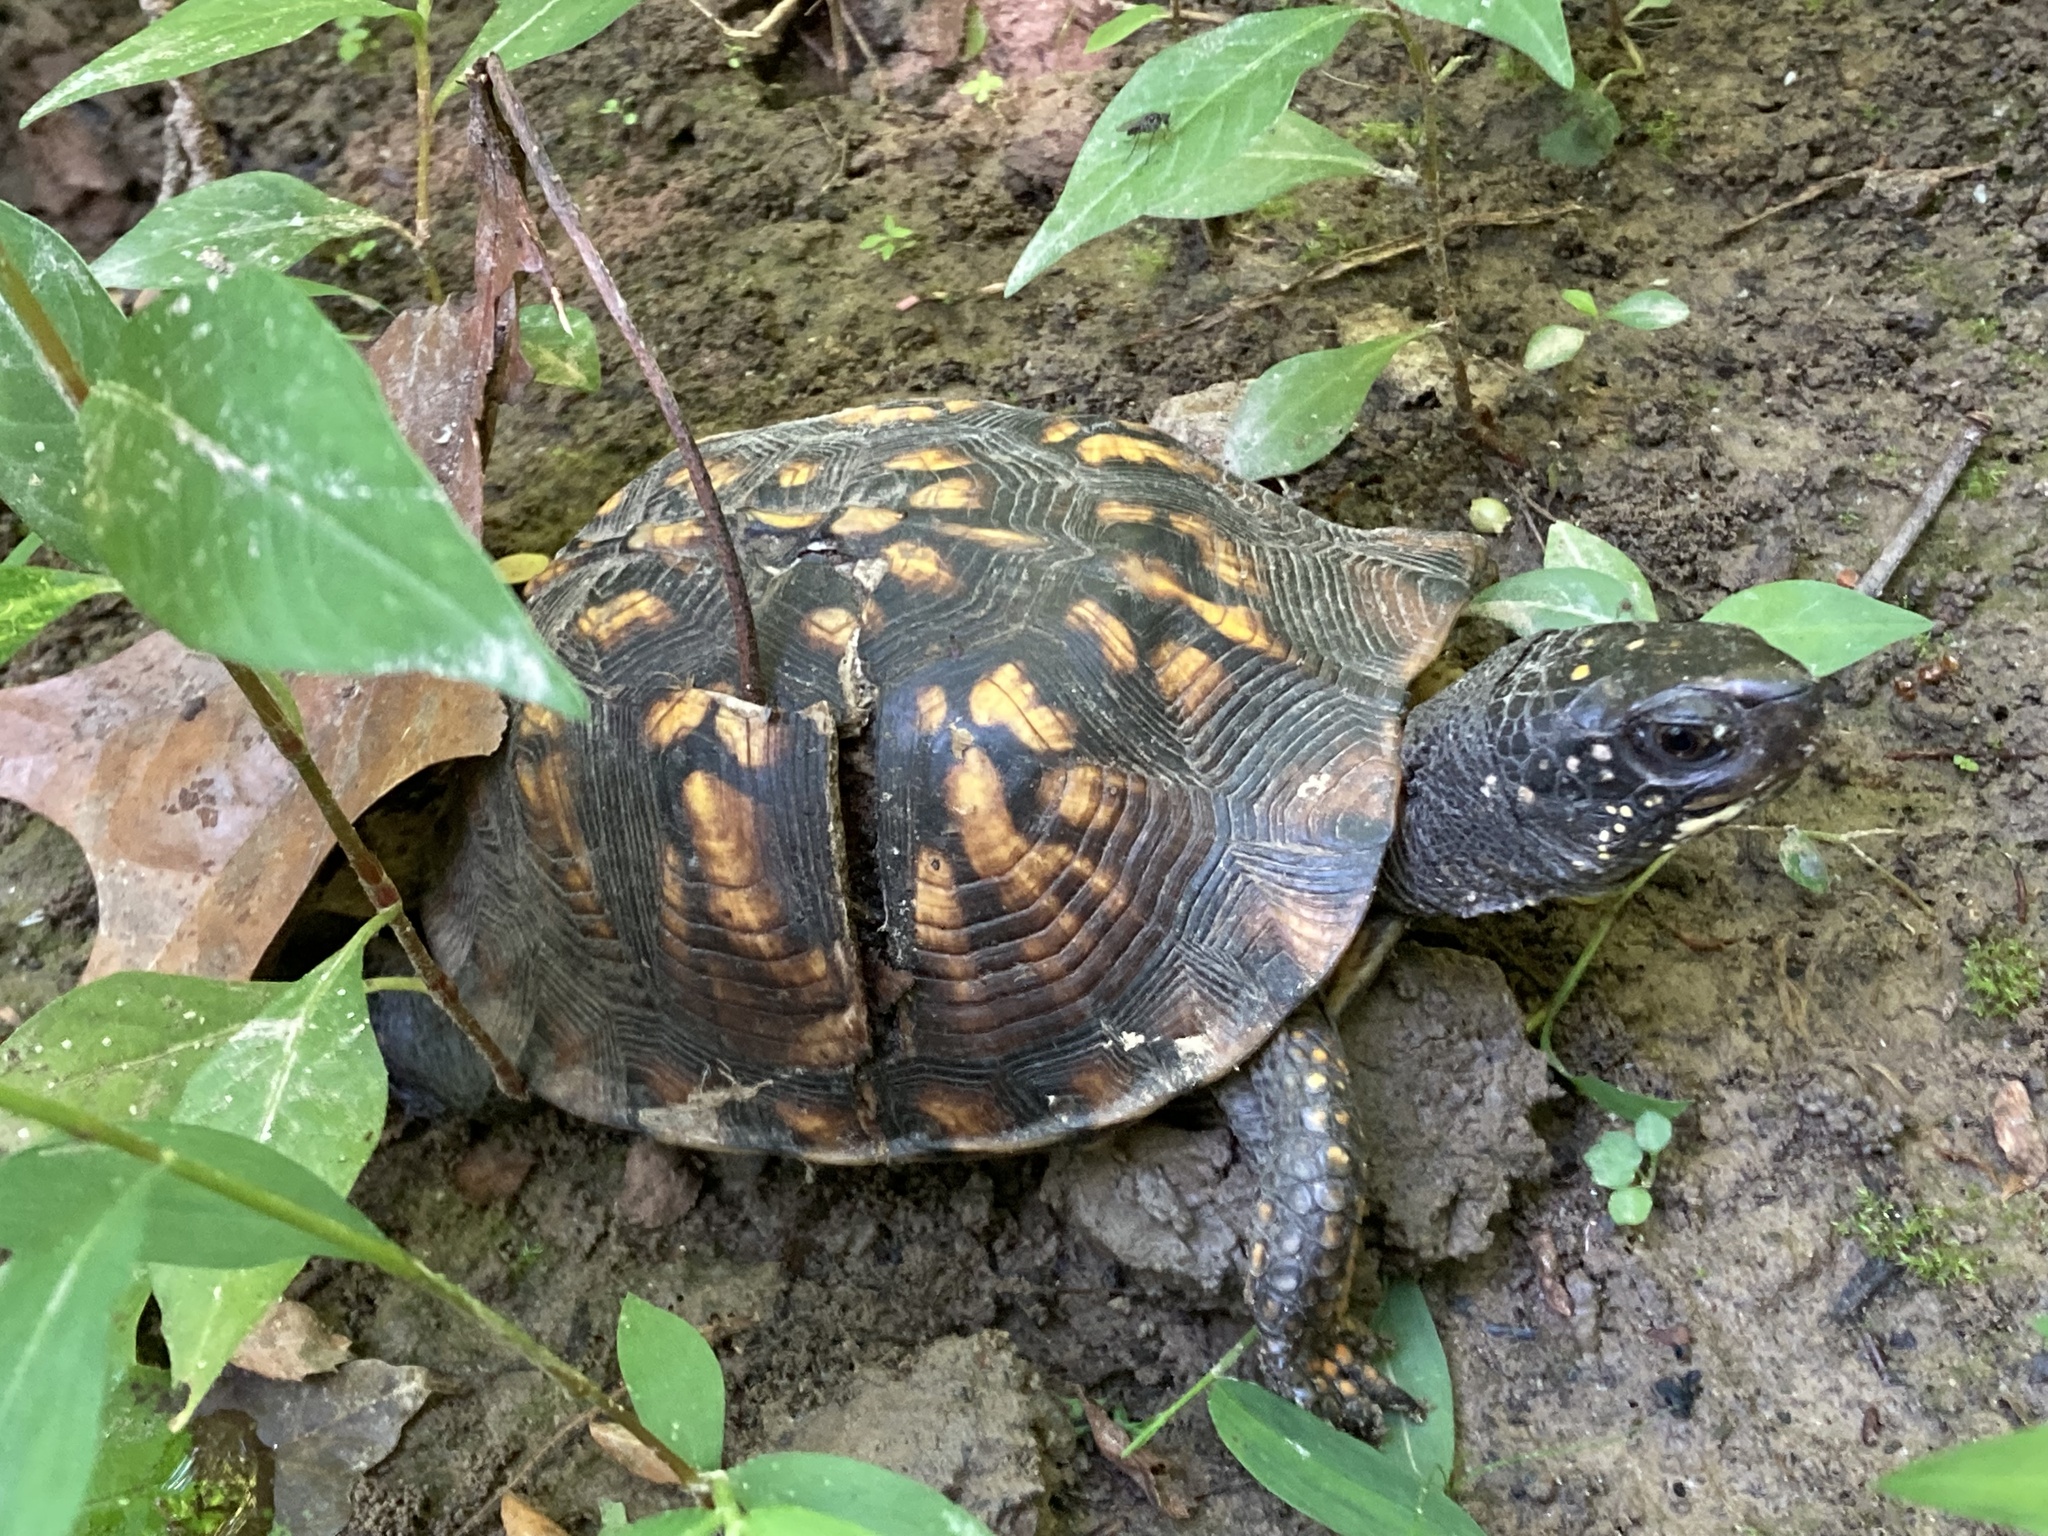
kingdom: Animalia
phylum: Chordata
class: Testudines
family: Emydidae
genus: Terrapene
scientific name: Terrapene carolina
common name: Common box turtle
